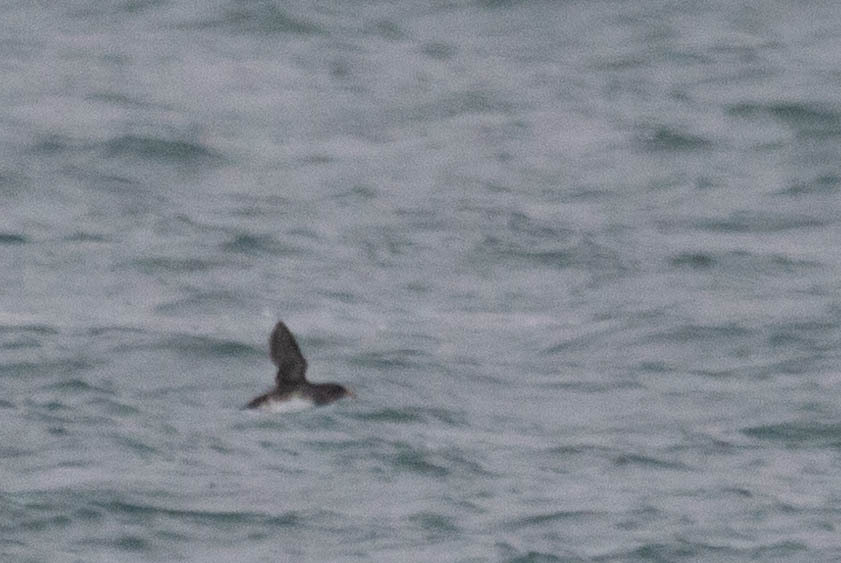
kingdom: Animalia
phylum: Chordata
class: Aves
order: Charadriiformes
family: Alcidae
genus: Cerorhinca
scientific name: Cerorhinca monocerata
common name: Rhinoceros auklet
